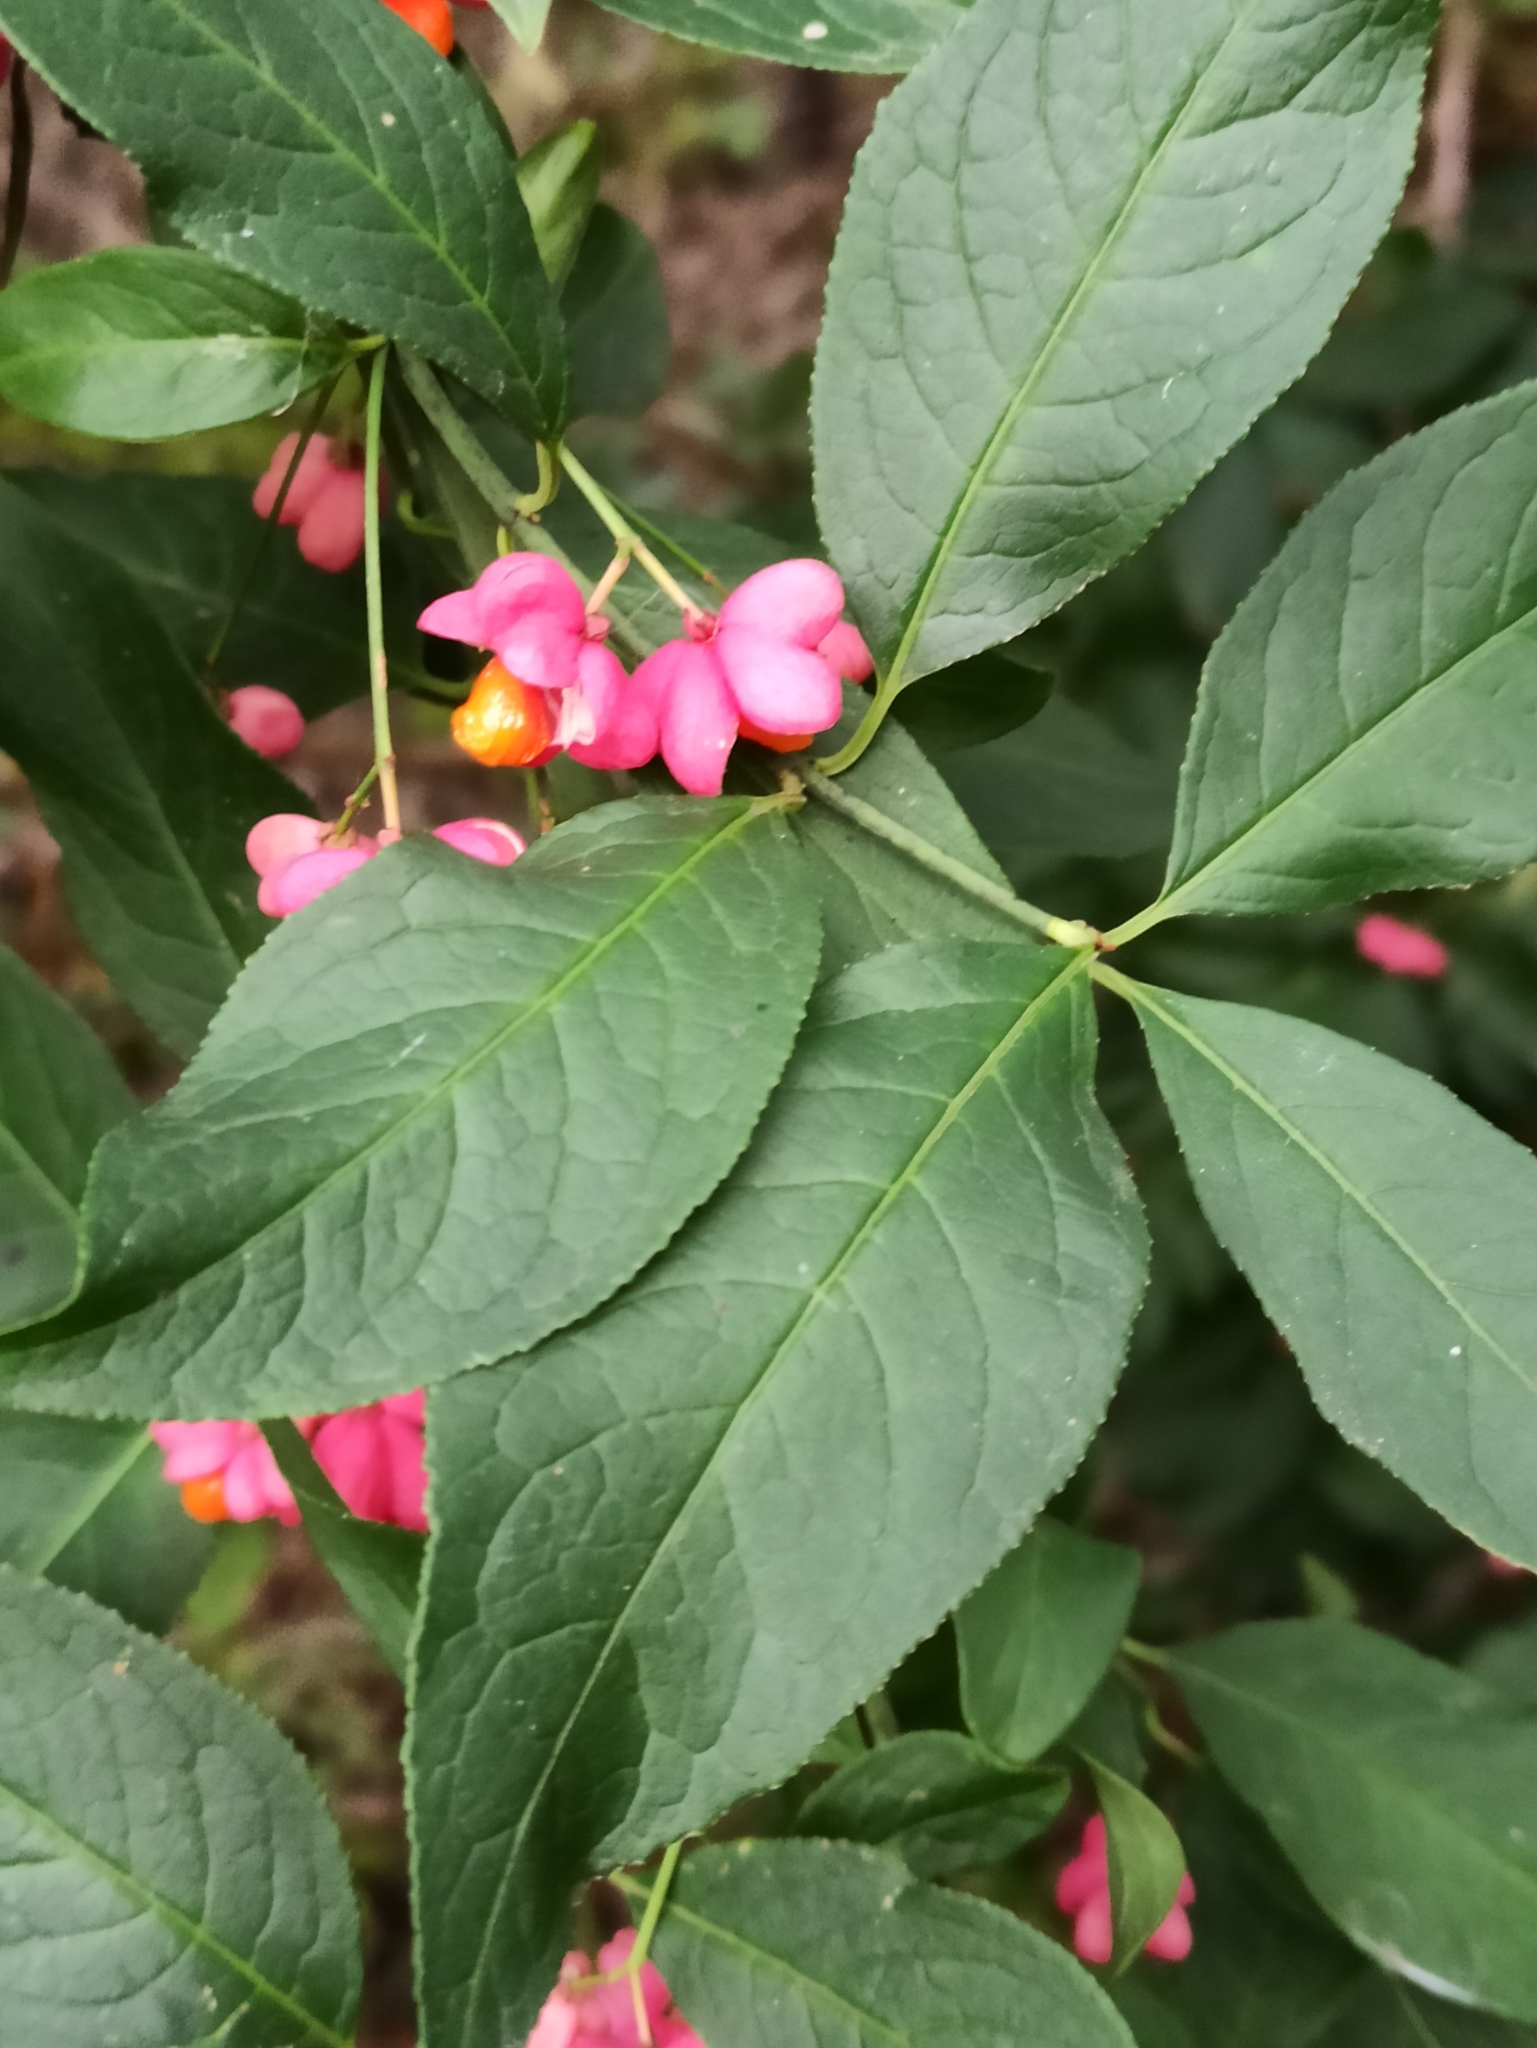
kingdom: Plantae
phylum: Tracheophyta
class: Magnoliopsida
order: Celastrales
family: Celastraceae
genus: Euonymus
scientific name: Euonymus europaeus
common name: Spindle
